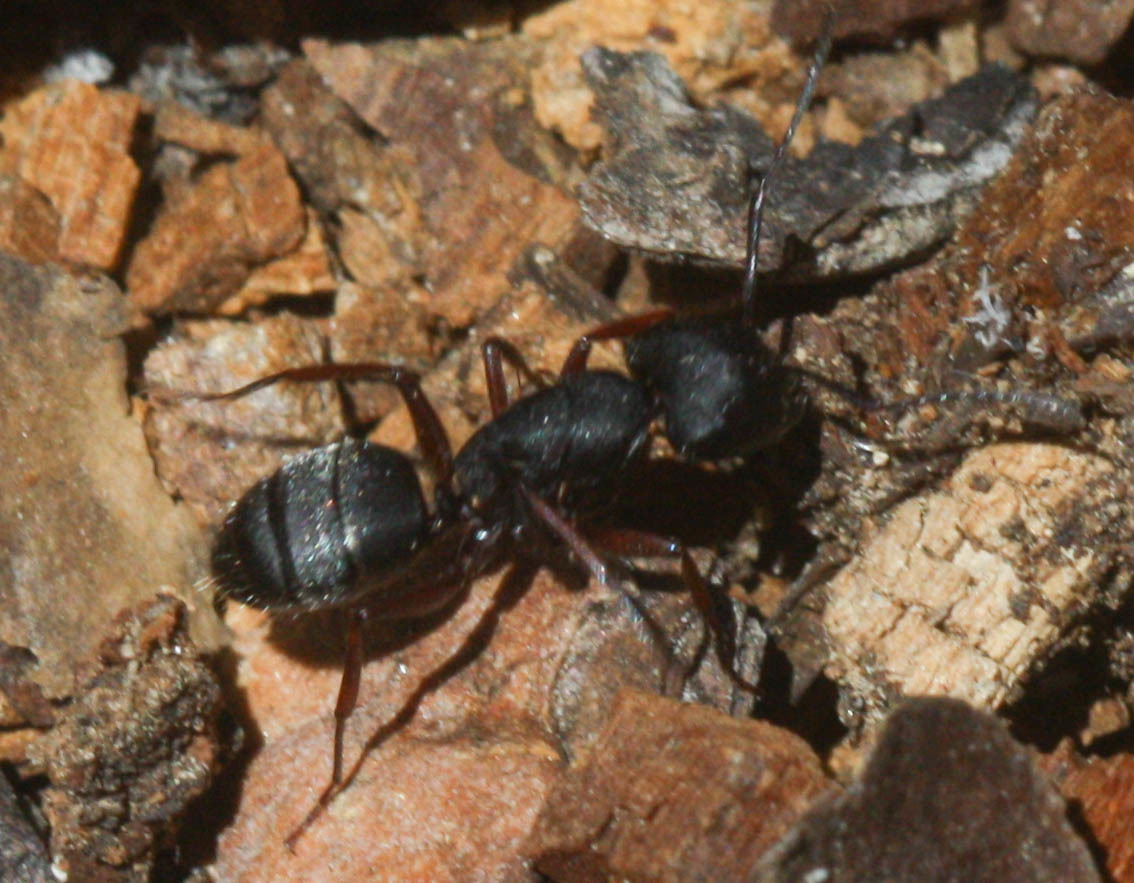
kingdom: Animalia
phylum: Arthropoda
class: Insecta
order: Hymenoptera
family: Formicidae
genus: Camponotus
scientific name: Camponotus modoc
